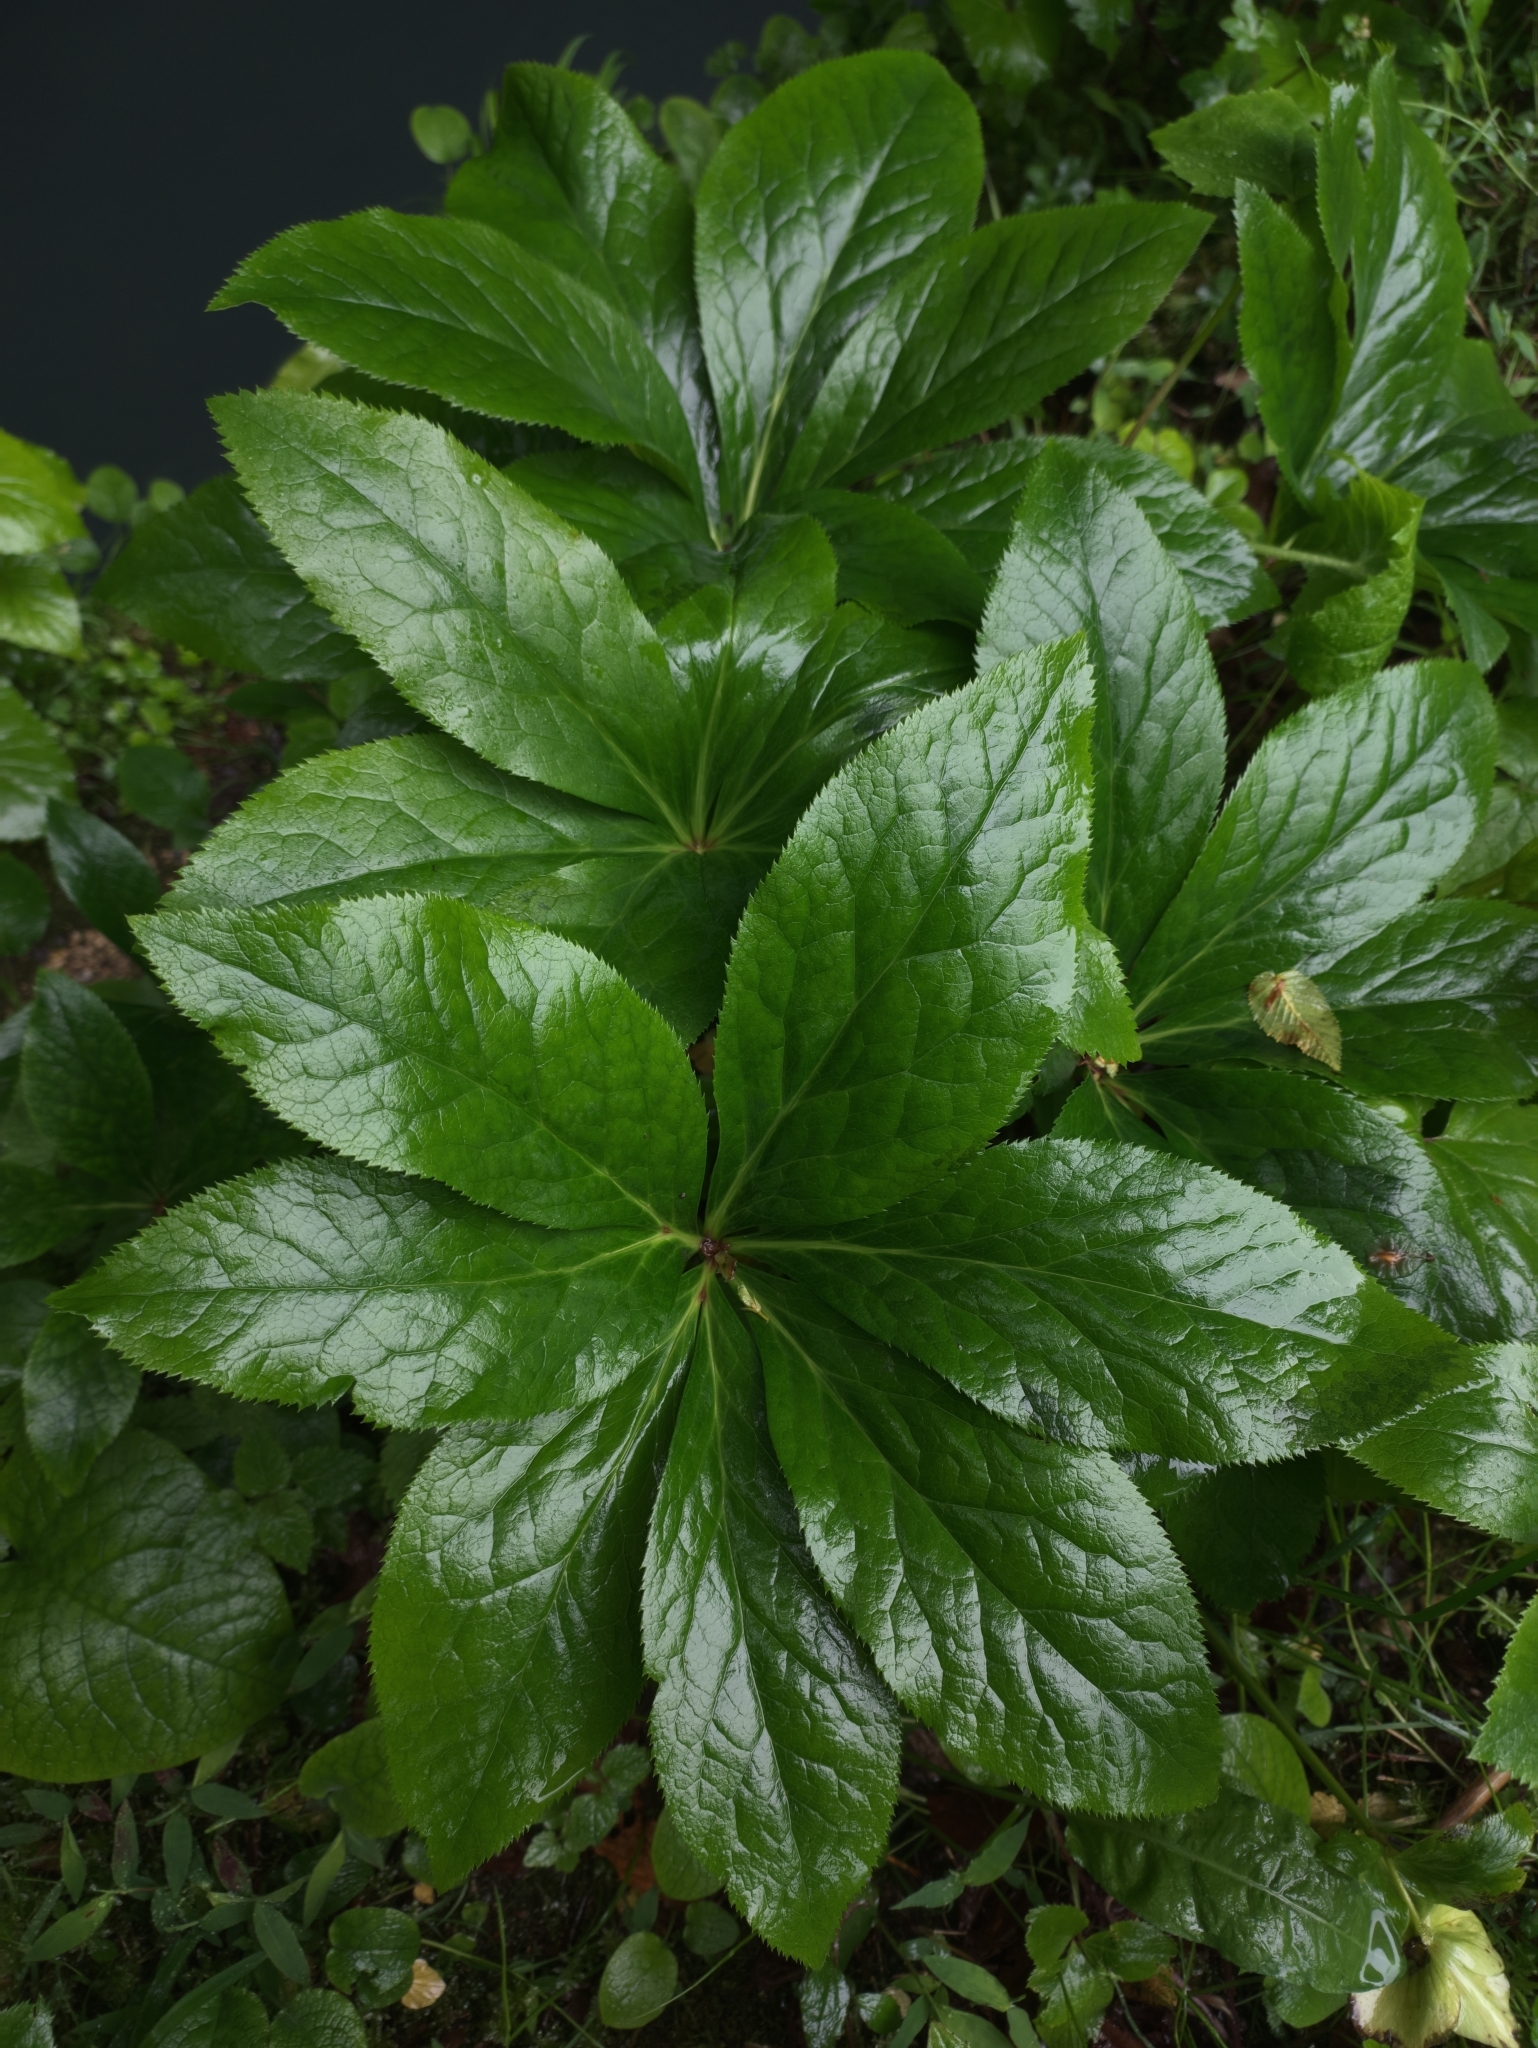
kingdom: Plantae
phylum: Tracheophyta
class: Magnoliopsida
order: Ranunculales
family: Ranunculaceae
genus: Helleborus
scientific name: Helleborus orientalis
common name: Lenten-rose
